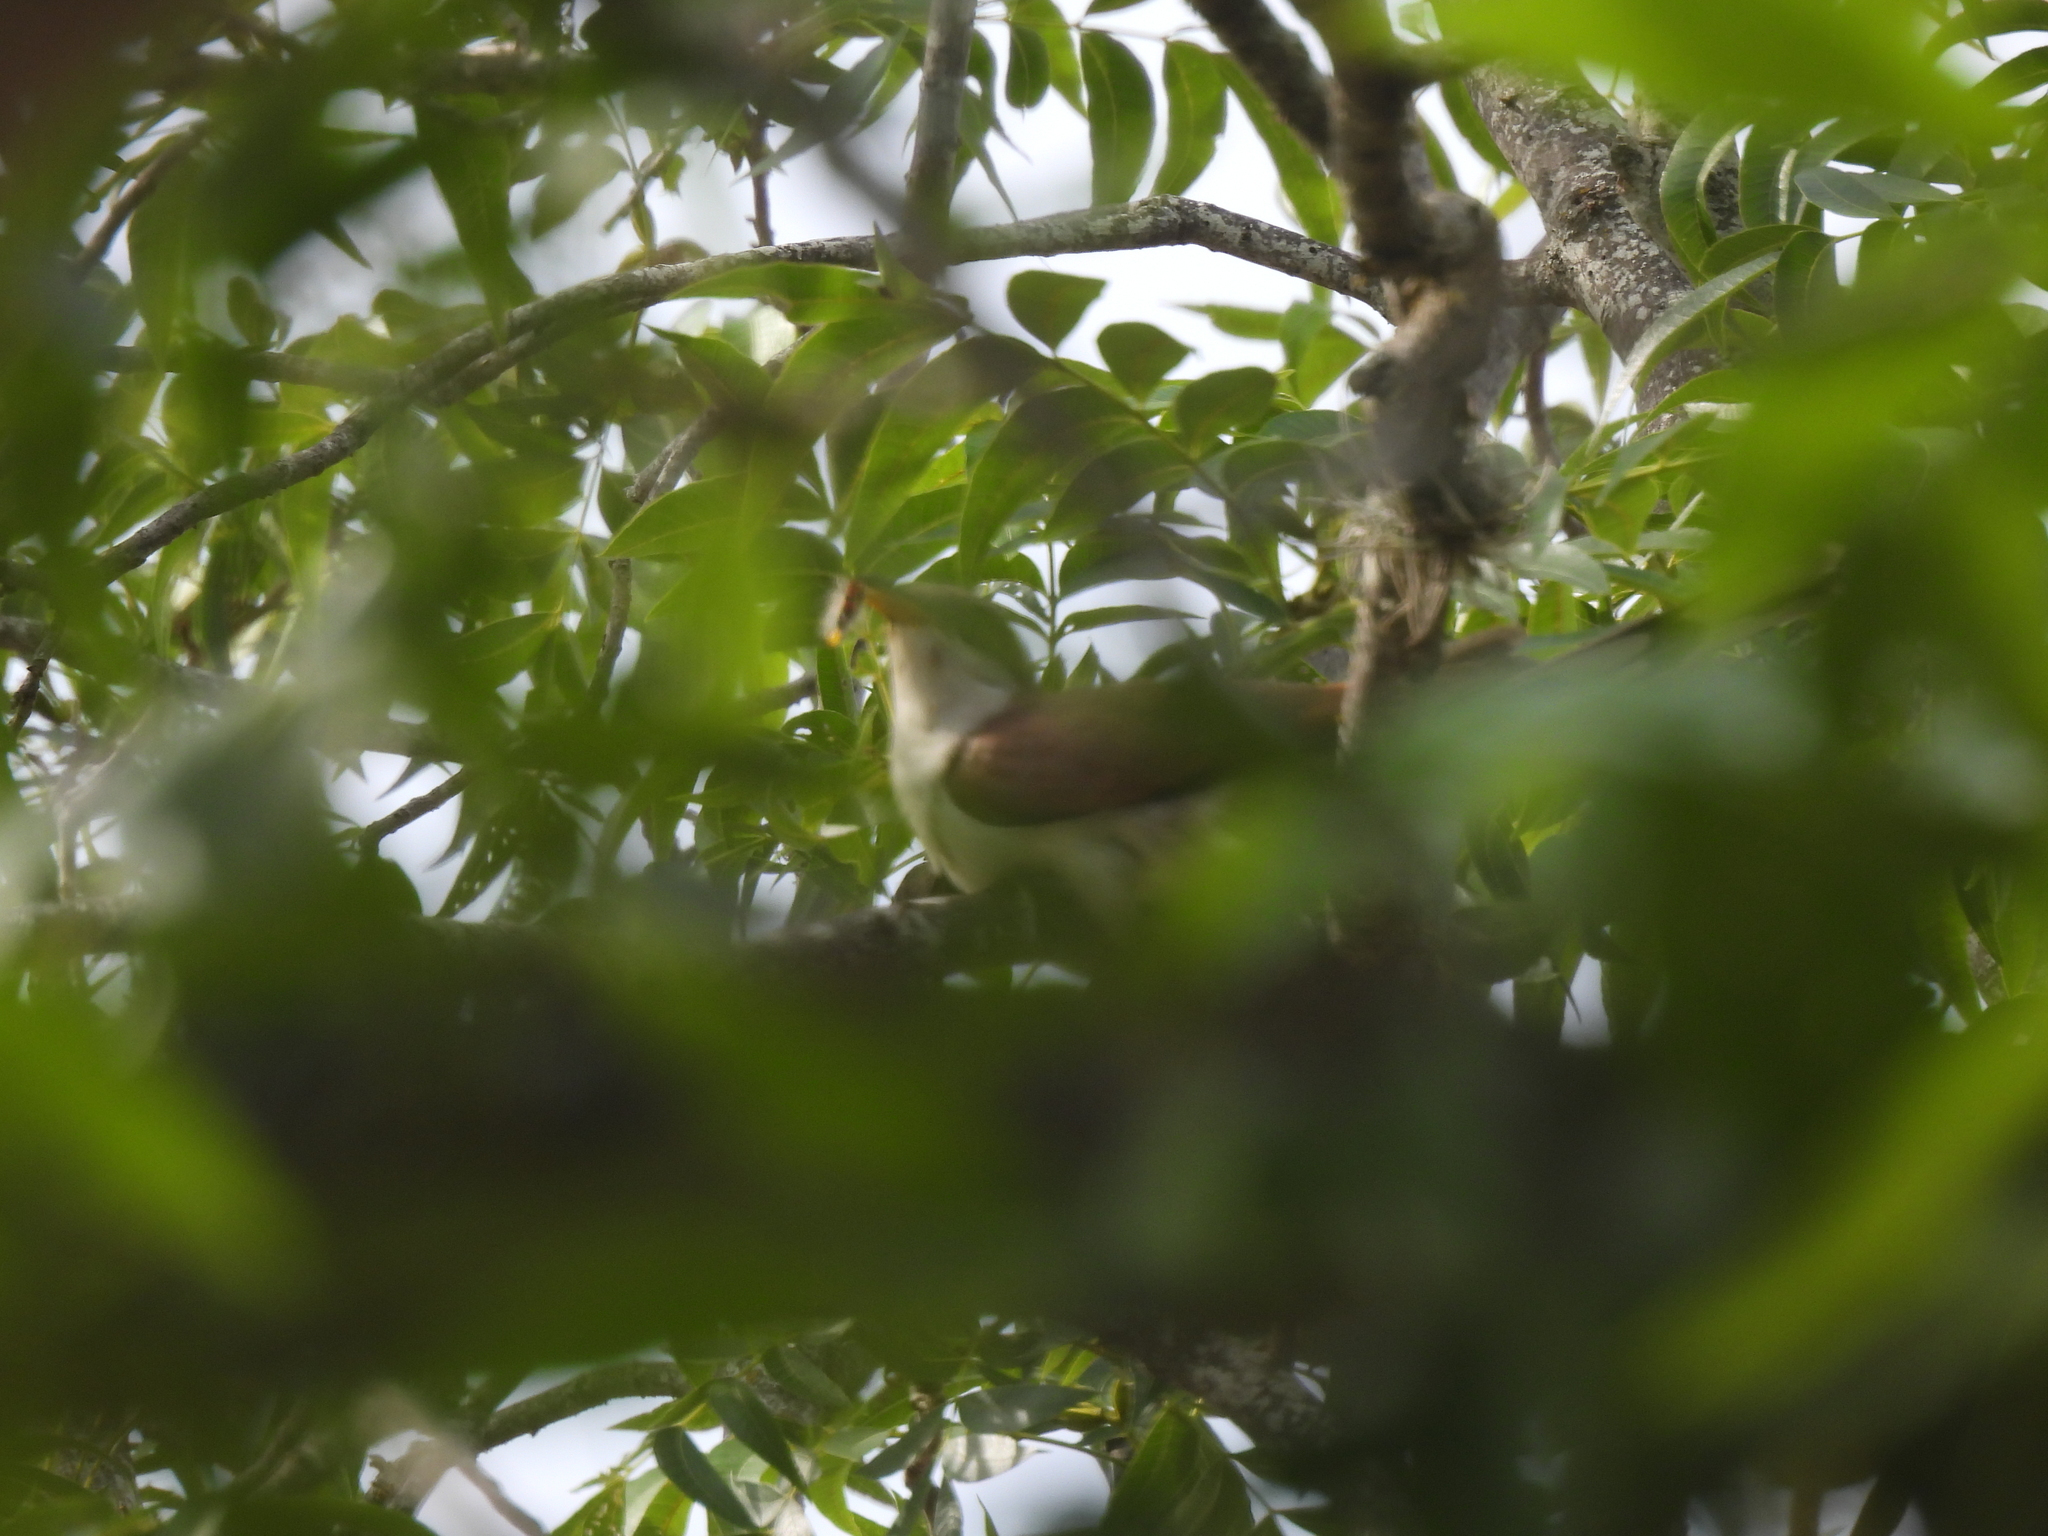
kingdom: Animalia
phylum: Chordata
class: Aves
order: Cuculiformes
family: Cuculidae
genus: Coccyzus
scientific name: Coccyzus americanus
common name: Yellow-billed cuckoo
